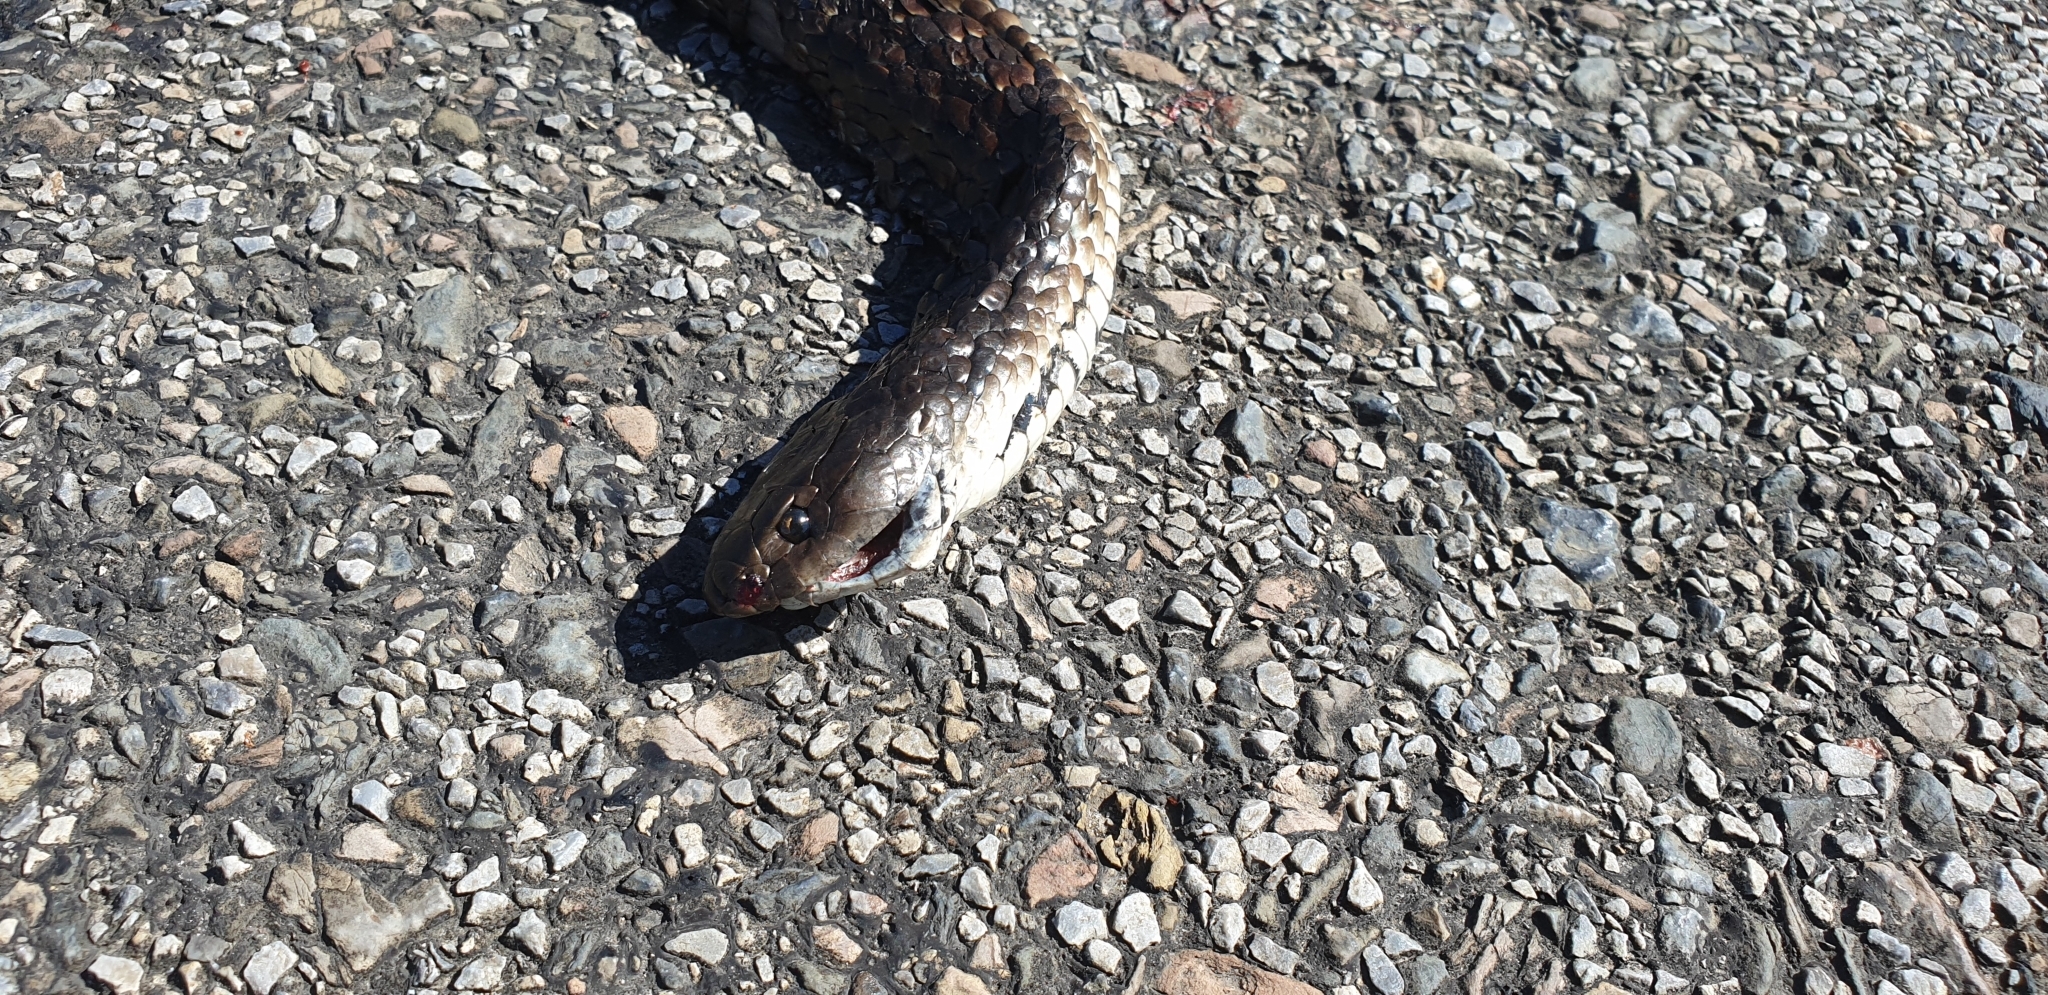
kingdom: Animalia
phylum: Chordata
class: Squamata
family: Elapidae
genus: Notechis
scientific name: Notechis scutatus
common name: Mainland tiger snake
